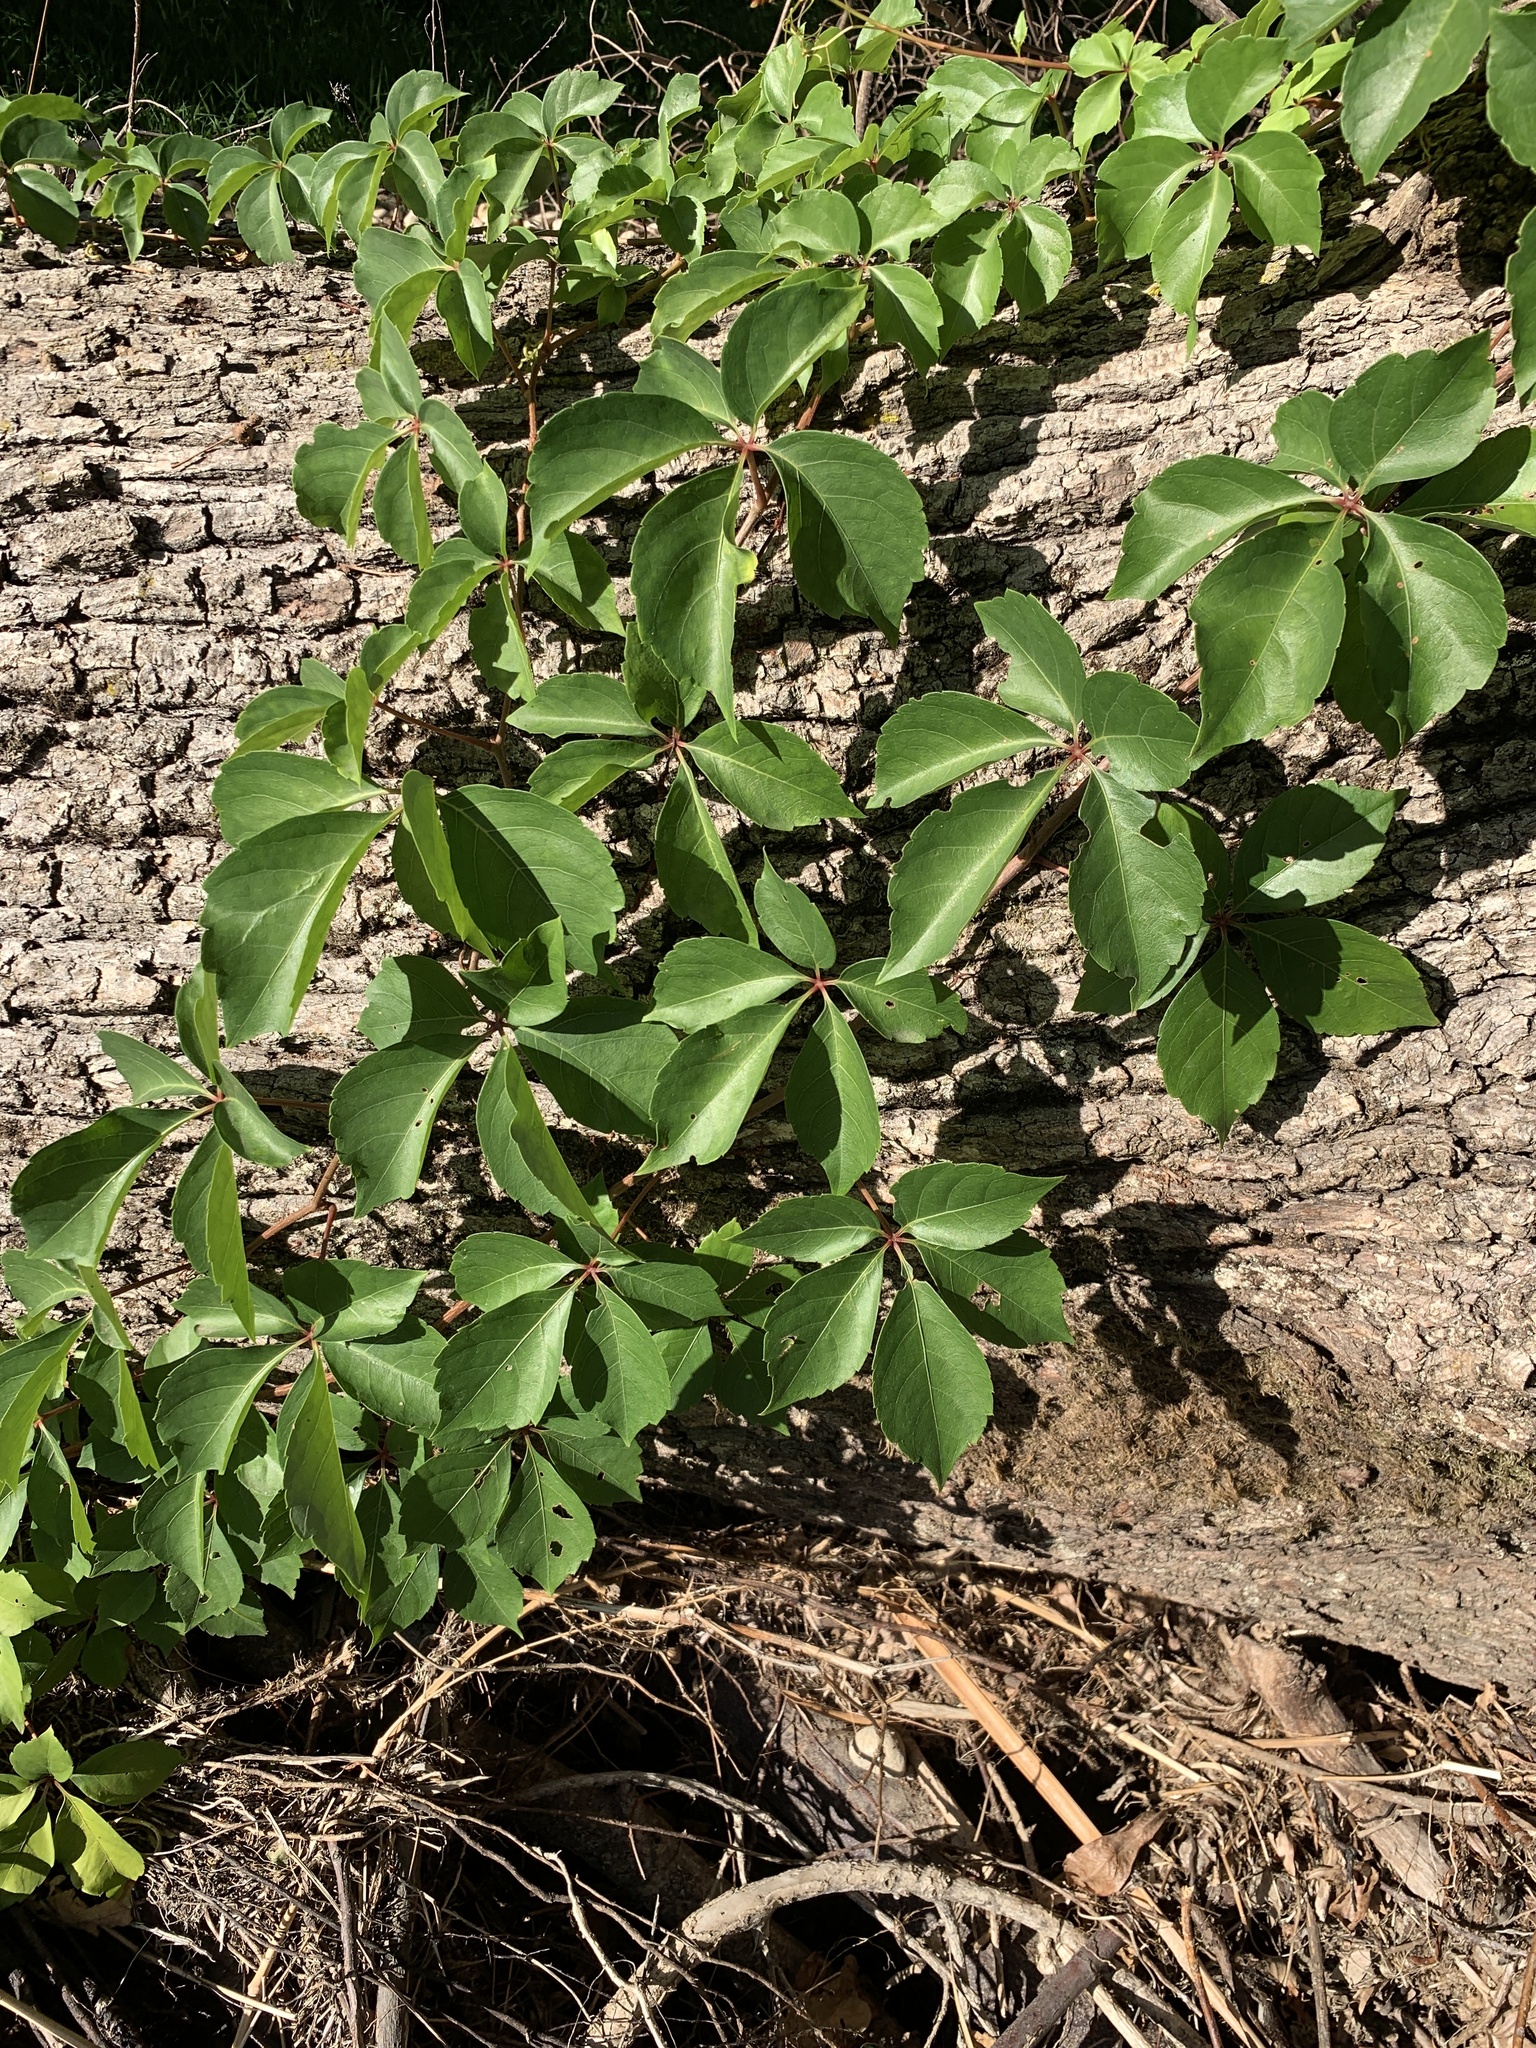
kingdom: Plantae
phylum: Tracheophyta
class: Magnoliopsida
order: Vitales
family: Vitaceae
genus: Parthenocissus
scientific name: Parthenocissus quinquefolia
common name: Virginia-creeper
